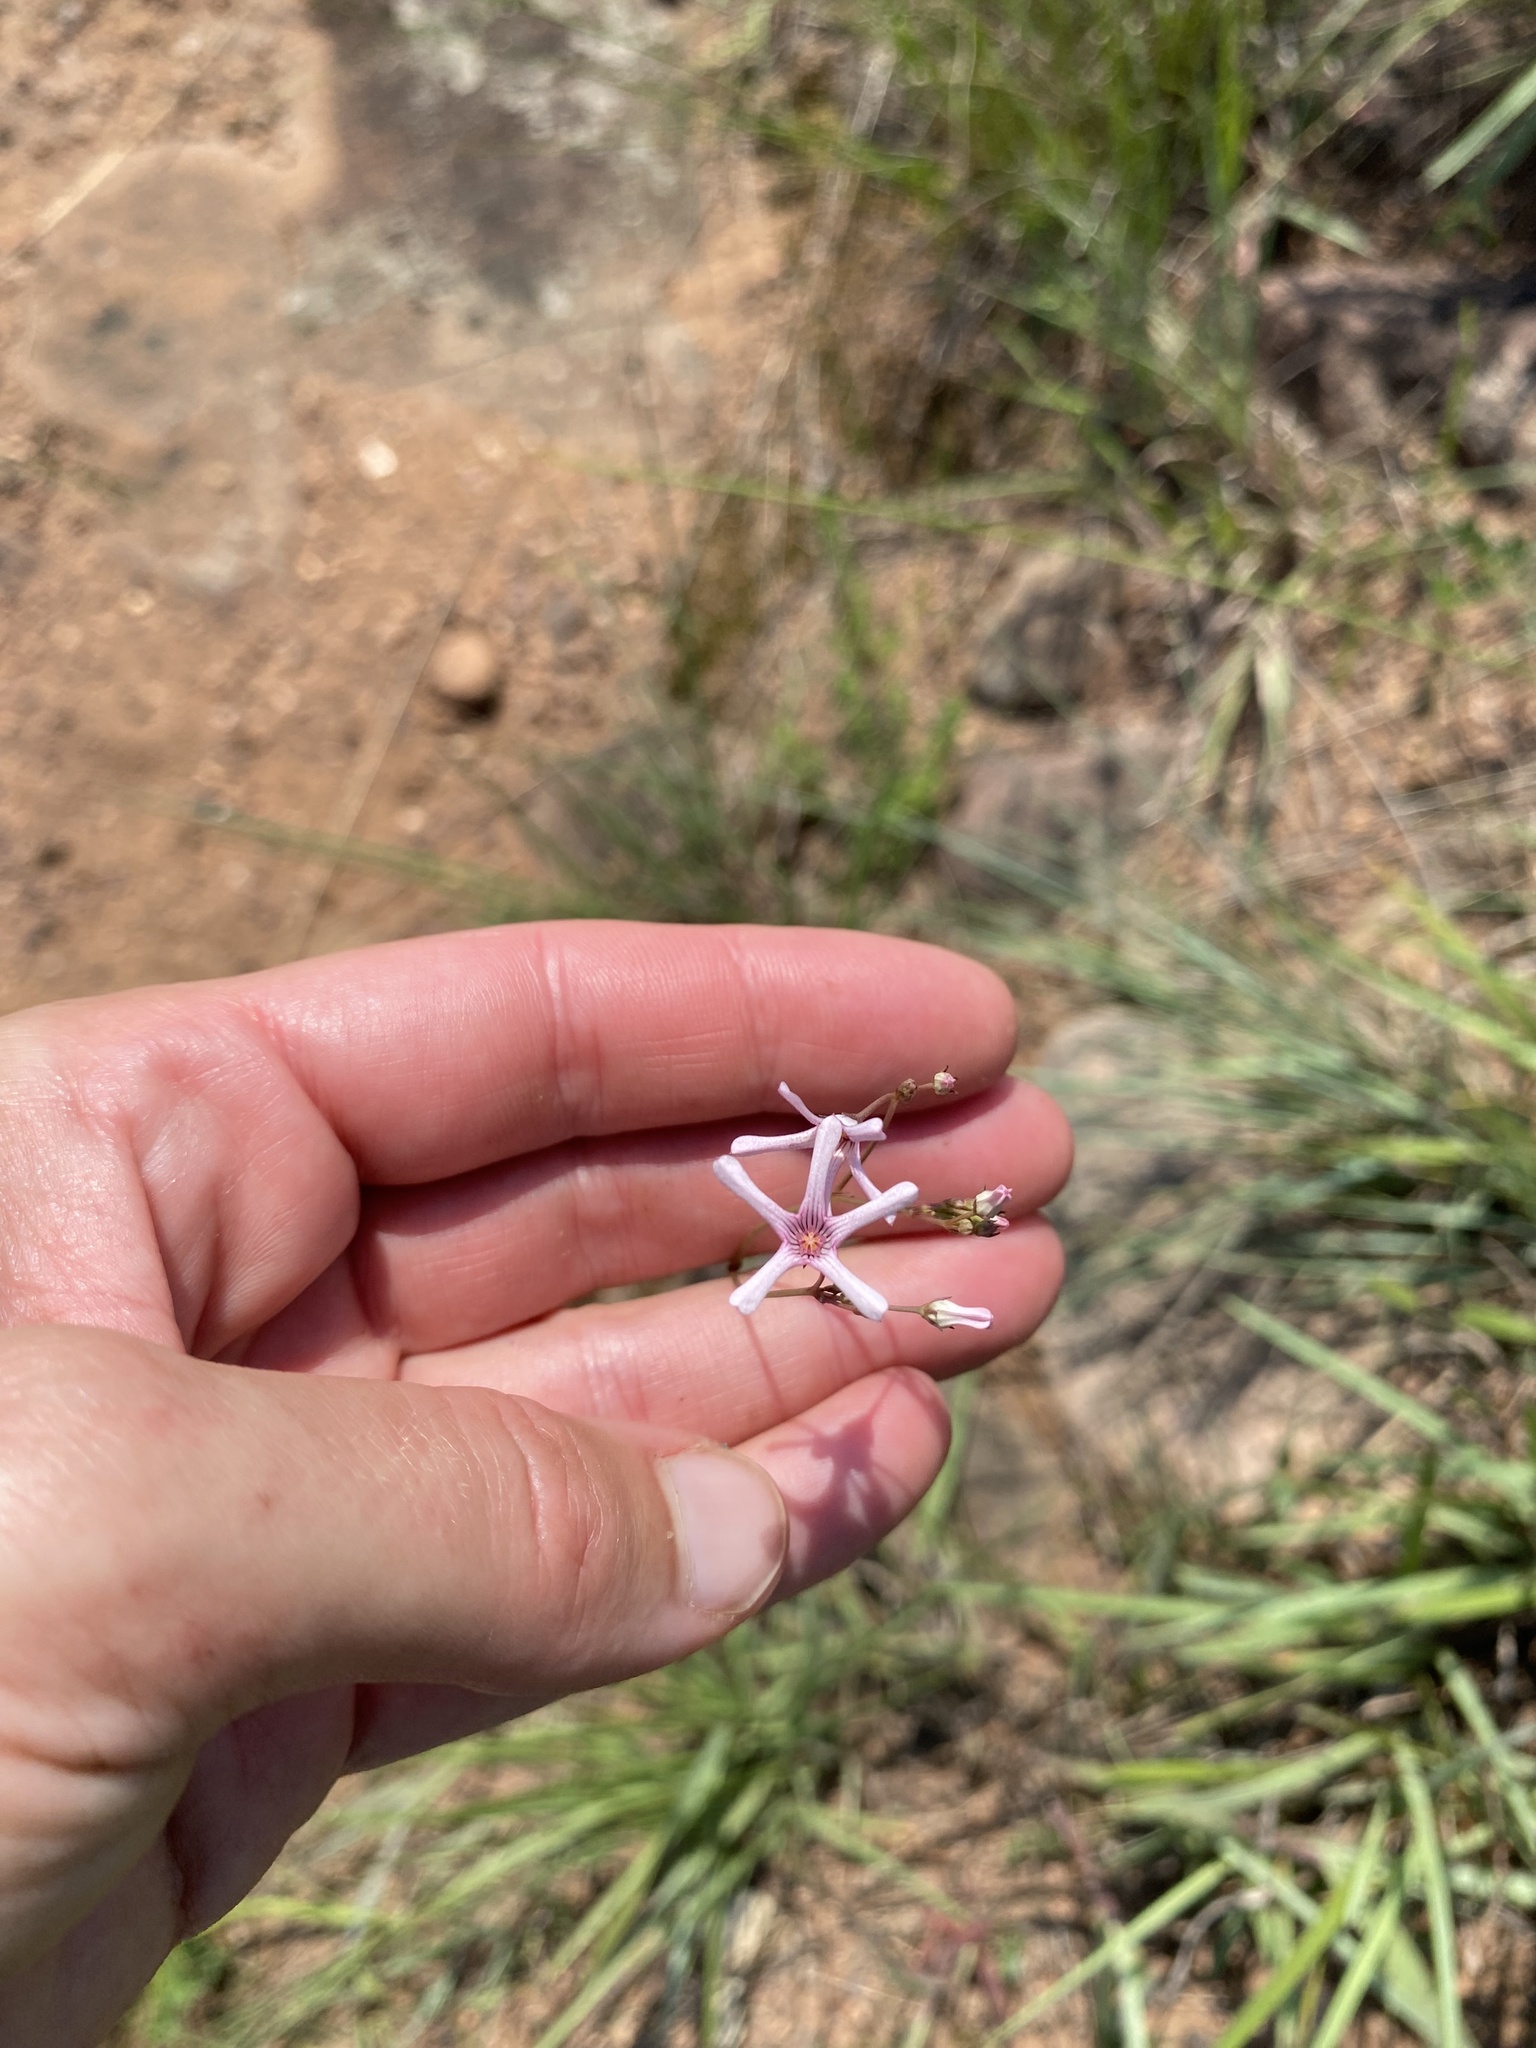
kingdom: Plantae
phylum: Tracheophyta
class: Magnoliopsida
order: Gentianales
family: Apocynaceae
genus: Ceropegia
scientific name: Ceropegia rubella
